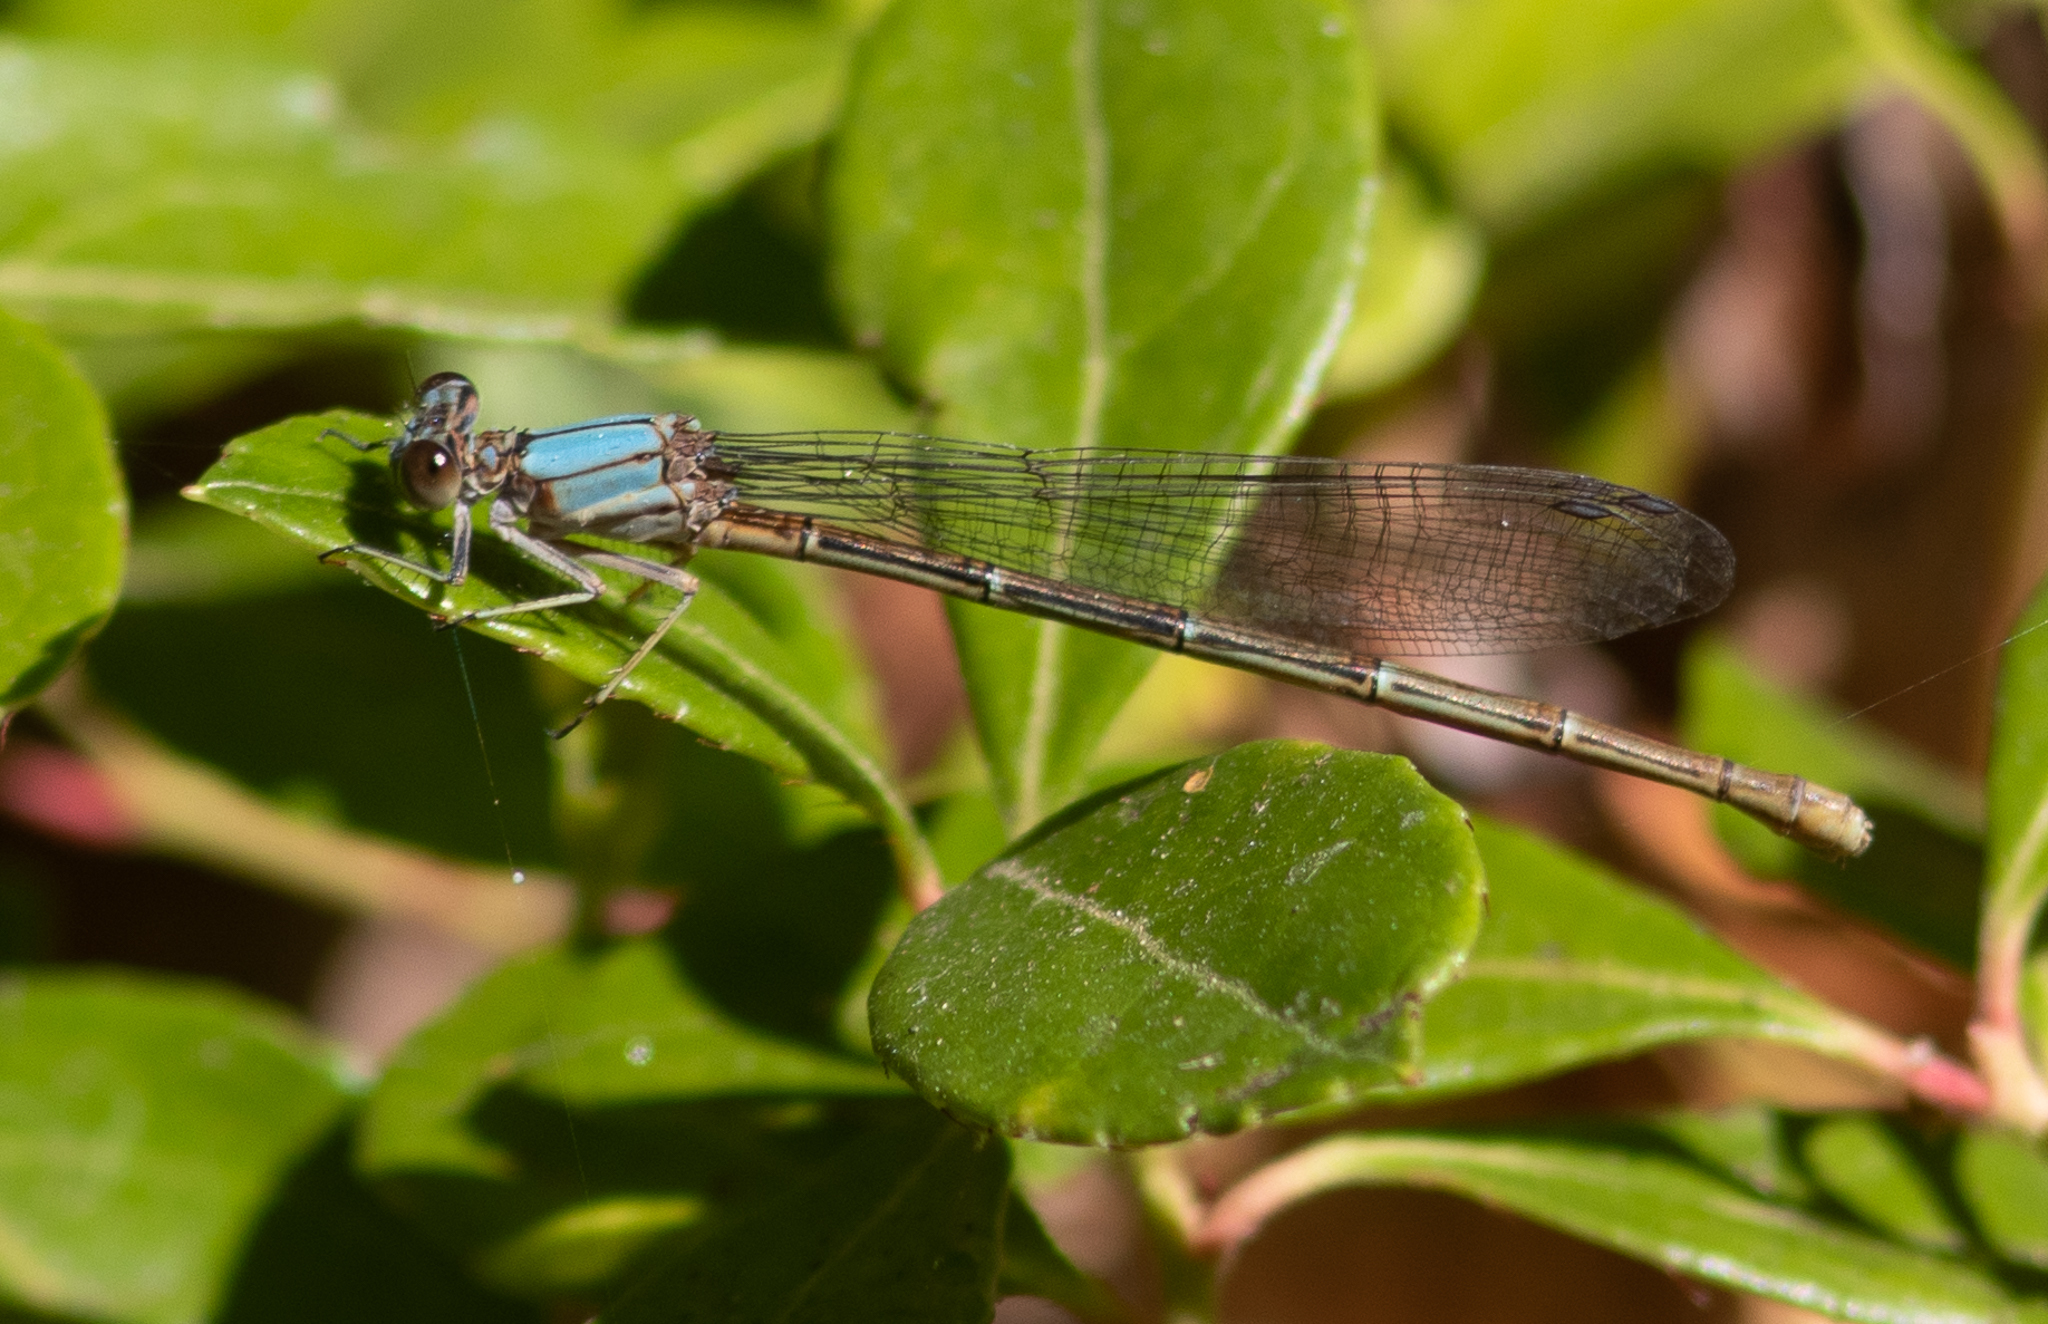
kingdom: Animalia
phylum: Arthropoda
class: Insecta
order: Odonata
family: Coenagrionidae
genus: Argia
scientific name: Argia moesta
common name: Powdered dancer
